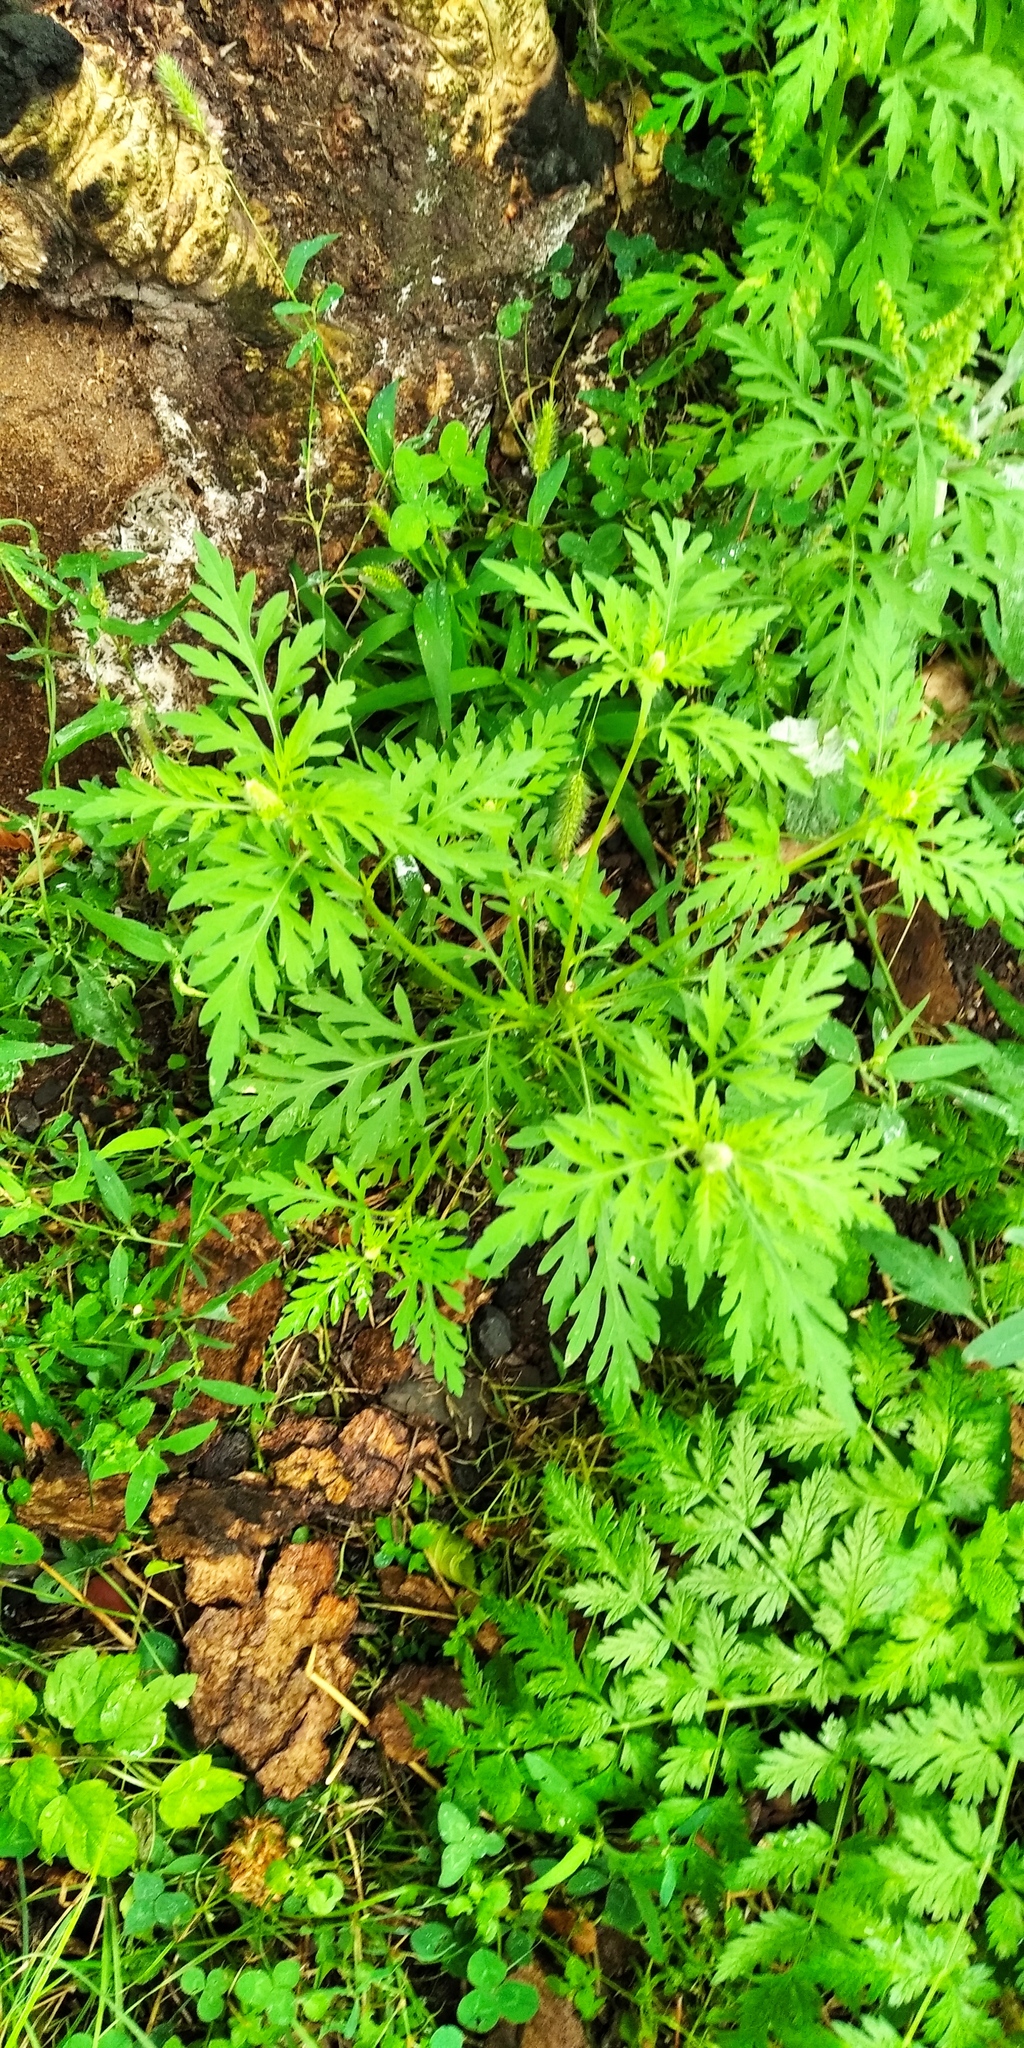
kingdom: Plantae
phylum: Tracheophyta
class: Magnoliopsida
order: Asterales
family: Asteraceae
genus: Ambrosia
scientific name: Ambrosia artemisiifolia
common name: Annual ragweed
